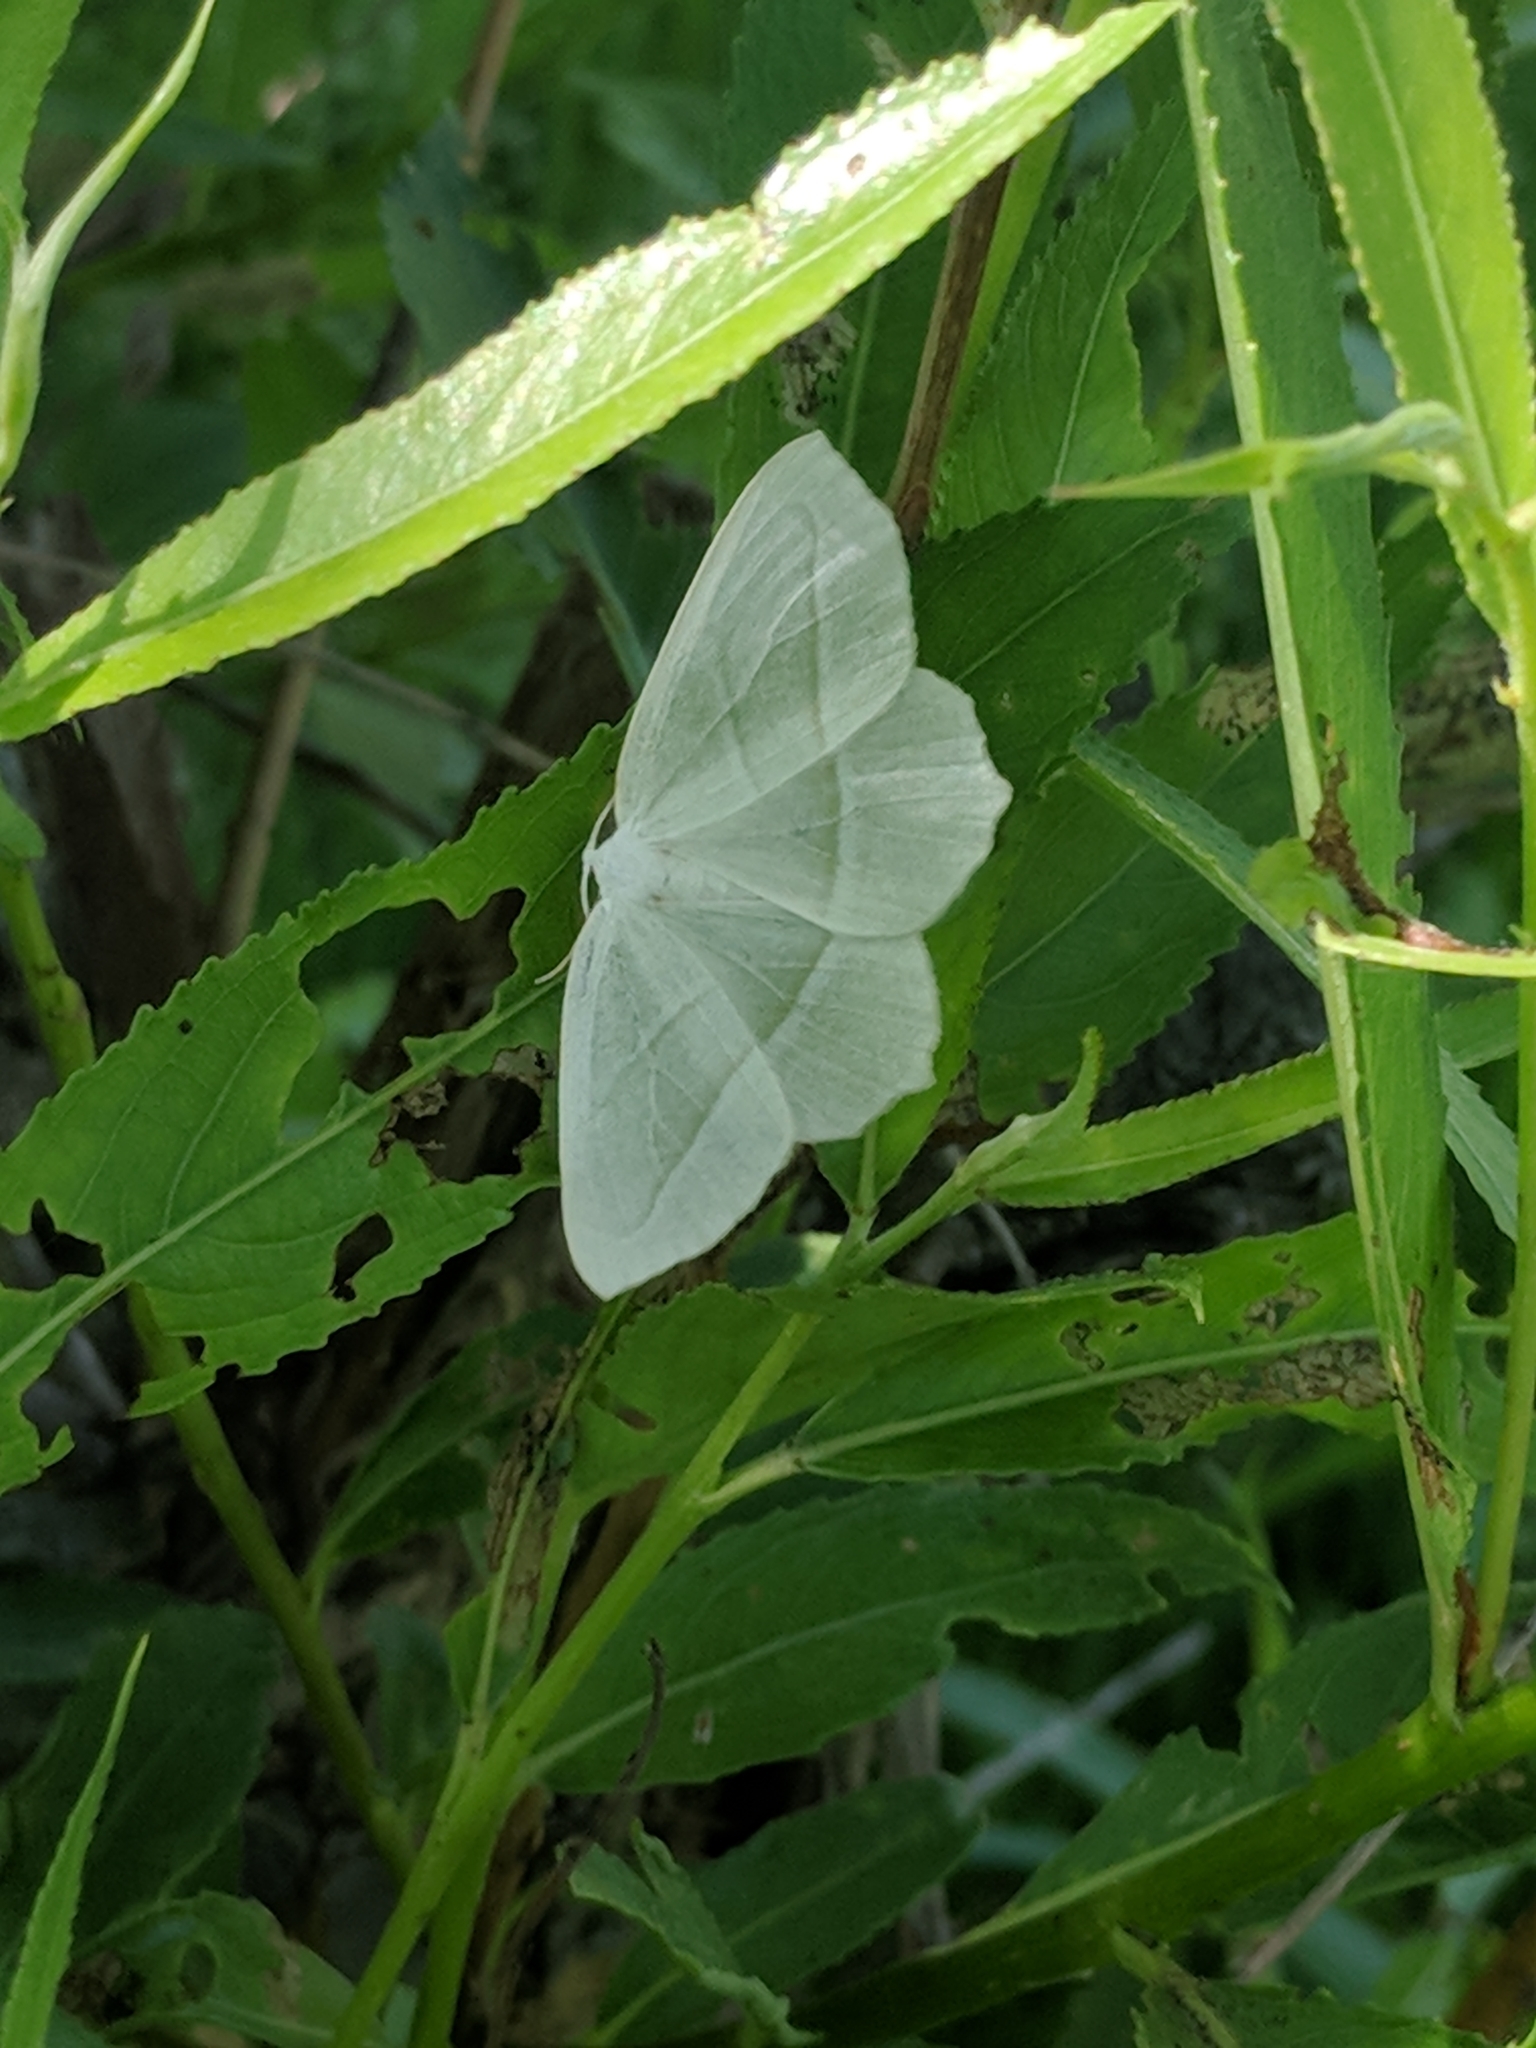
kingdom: Animalia
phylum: Arthropoda
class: Insecta
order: Lepidoptera
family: Geometridae
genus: Campaea
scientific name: Campaea perlata
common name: Fringed looper
